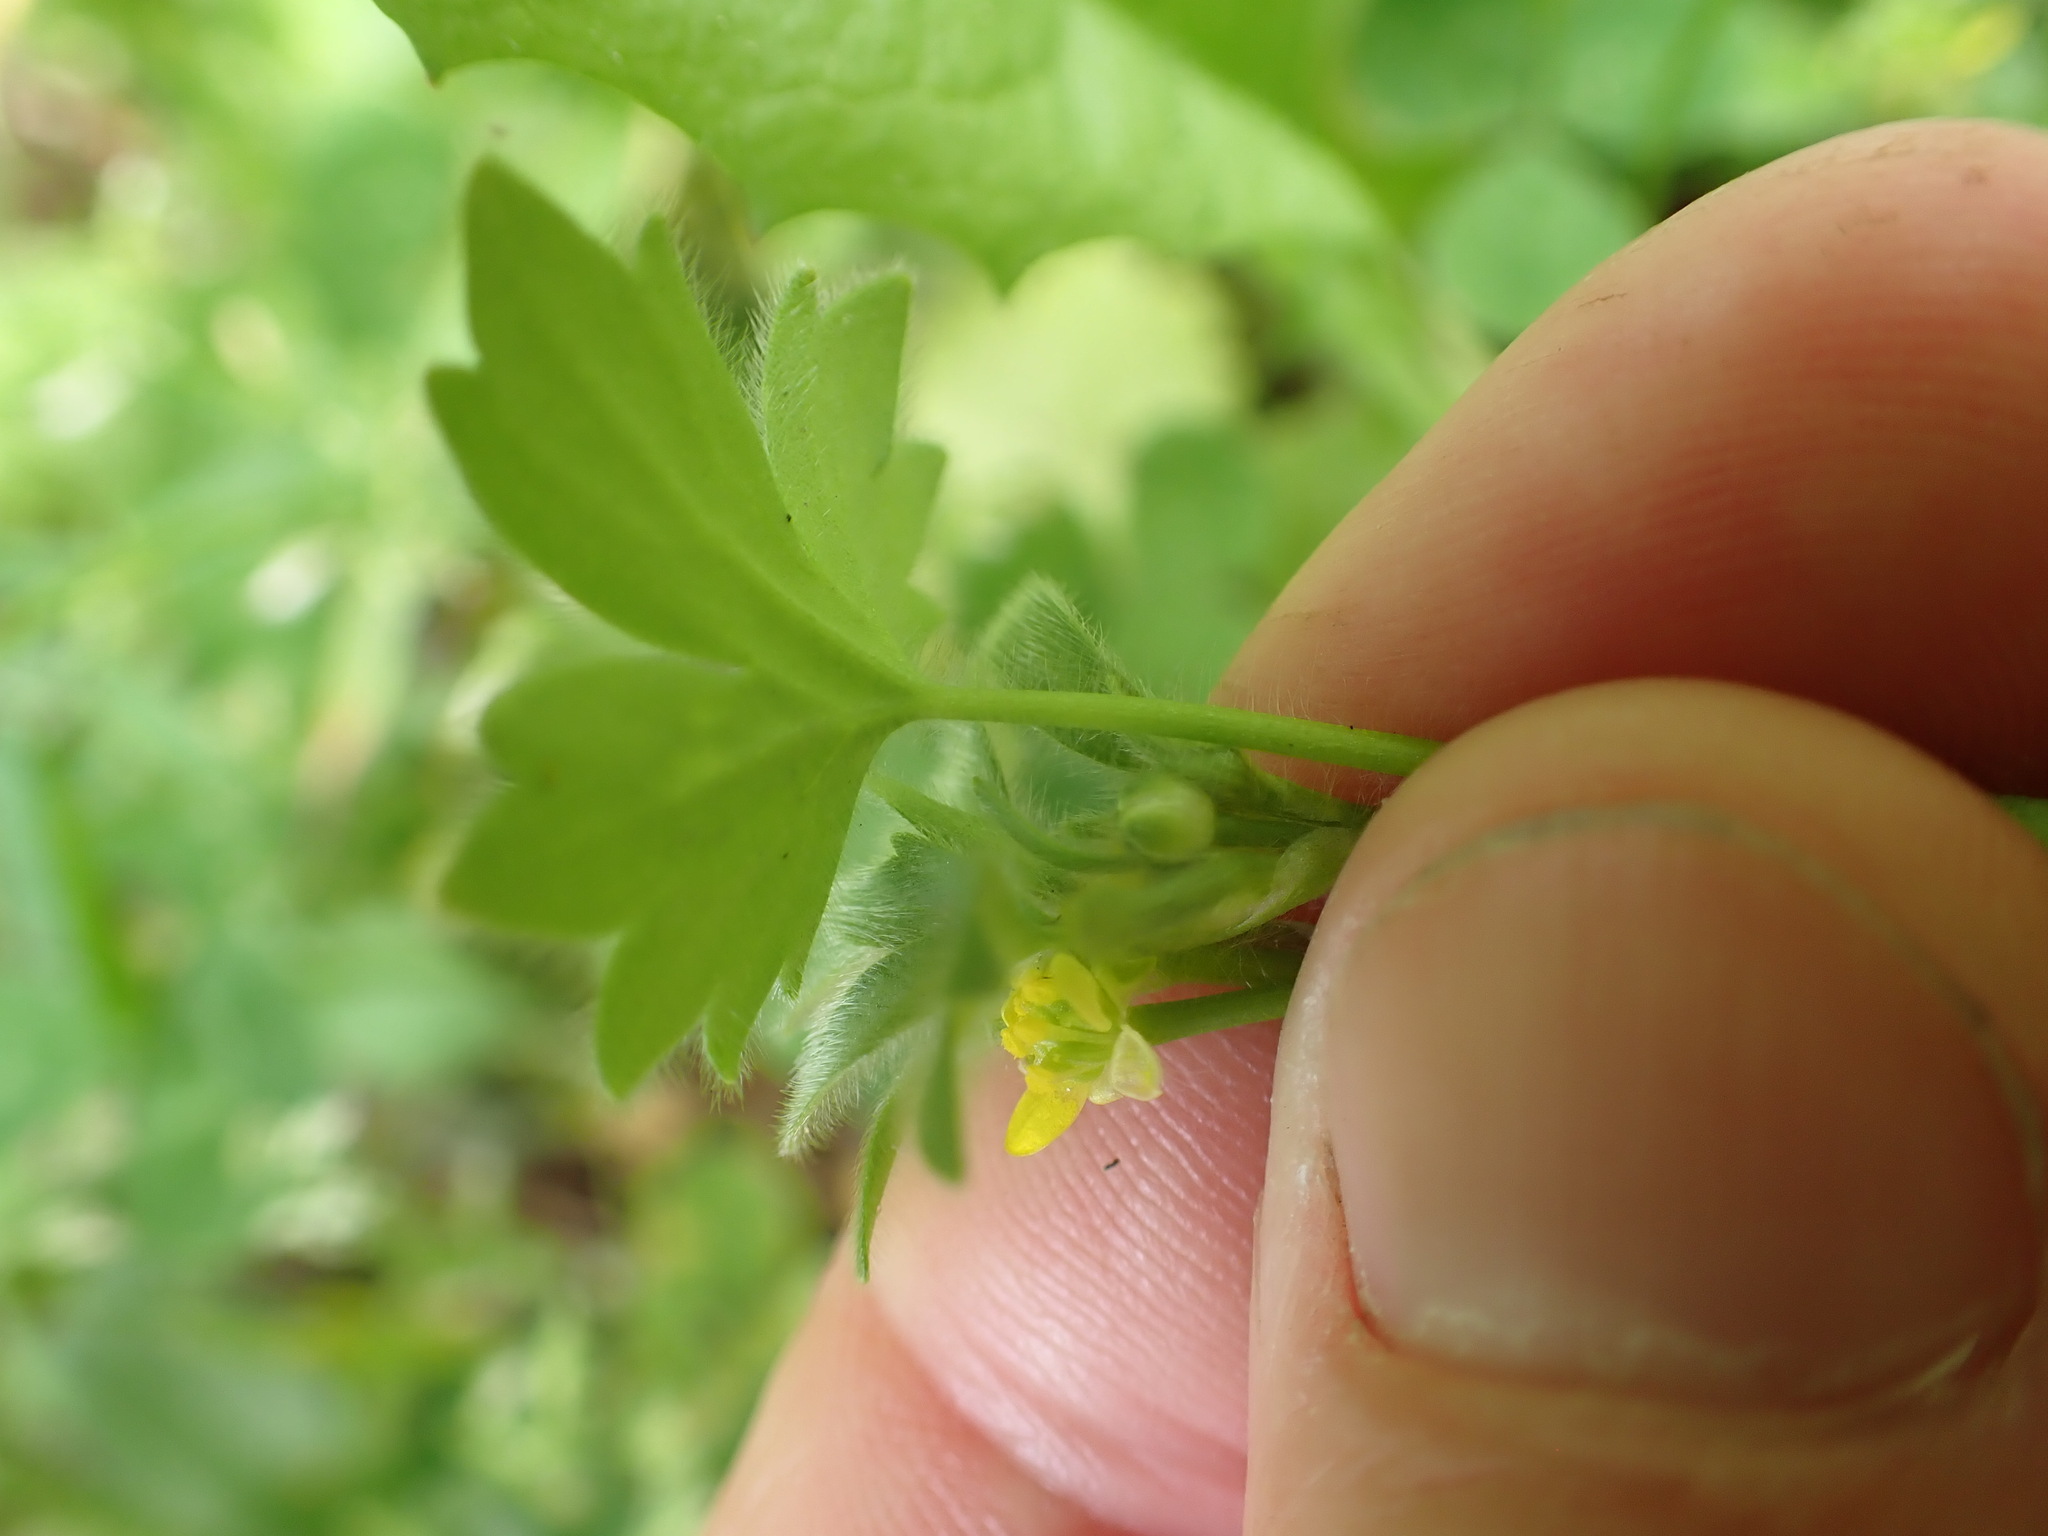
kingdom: Plantae
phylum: Tracheophyta
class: Magnoliopsida
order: Ranunculales
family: Ranunculaceae
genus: Ranunculus
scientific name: Ranunculus parviflorus
